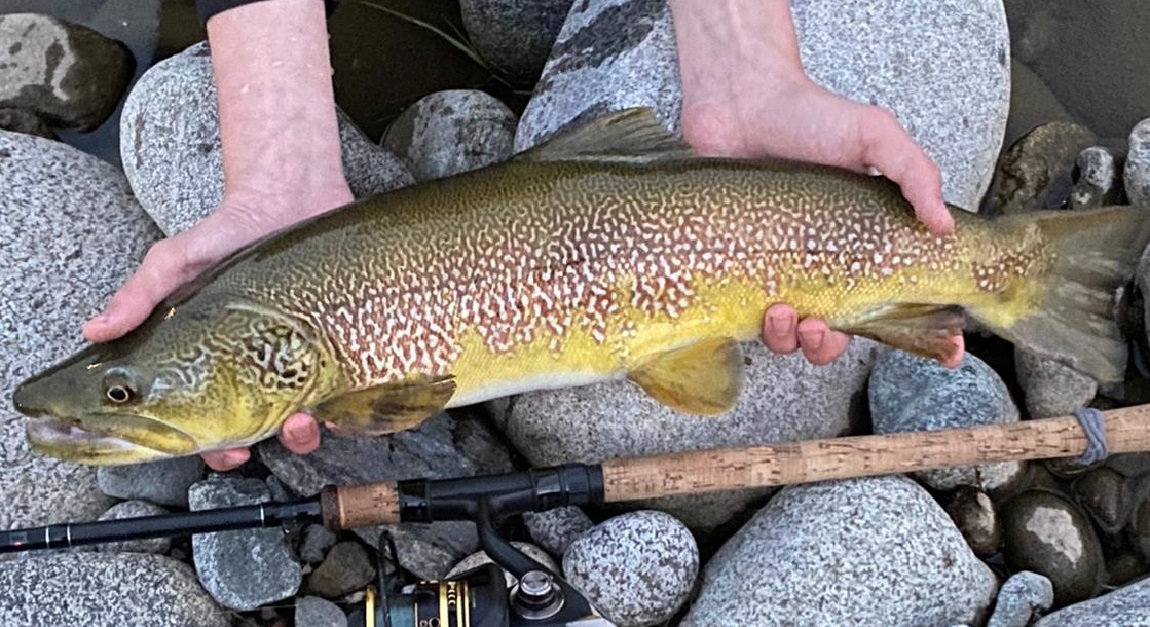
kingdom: Animalia
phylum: Chordata
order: Salmoniformes
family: Salmonidae
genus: Salmo
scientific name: Salmo marmoratus
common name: Marble trout
